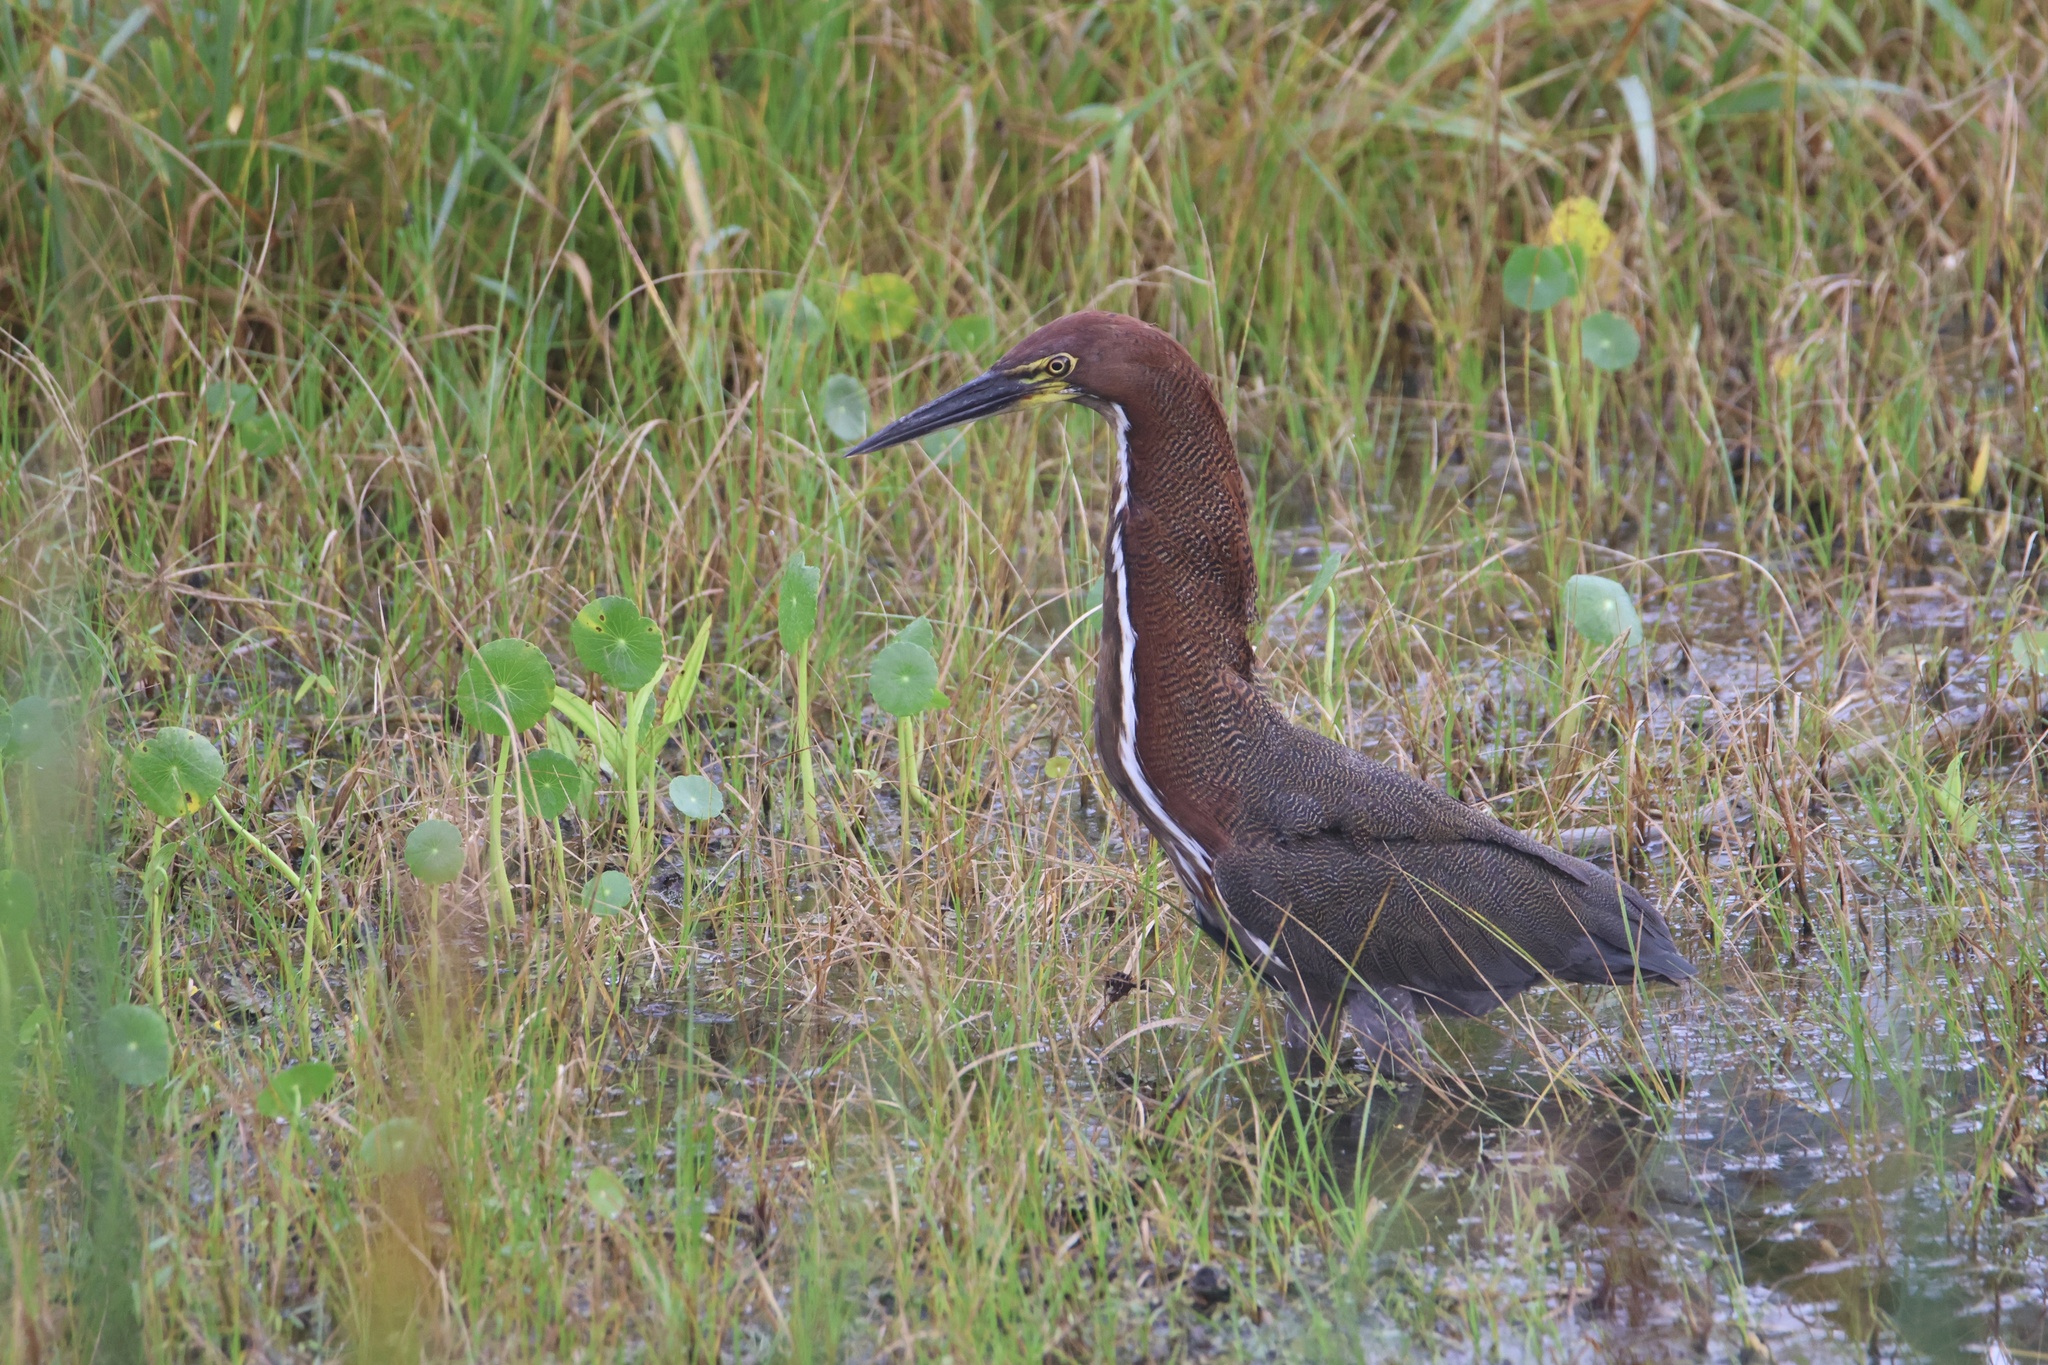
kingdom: Animalia
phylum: Chordata
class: Aves
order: Pelecaniformes
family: Ardeidae
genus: Tigrisoma
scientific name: Tigrisoma lineatum
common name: Rufescent tiger-heron
